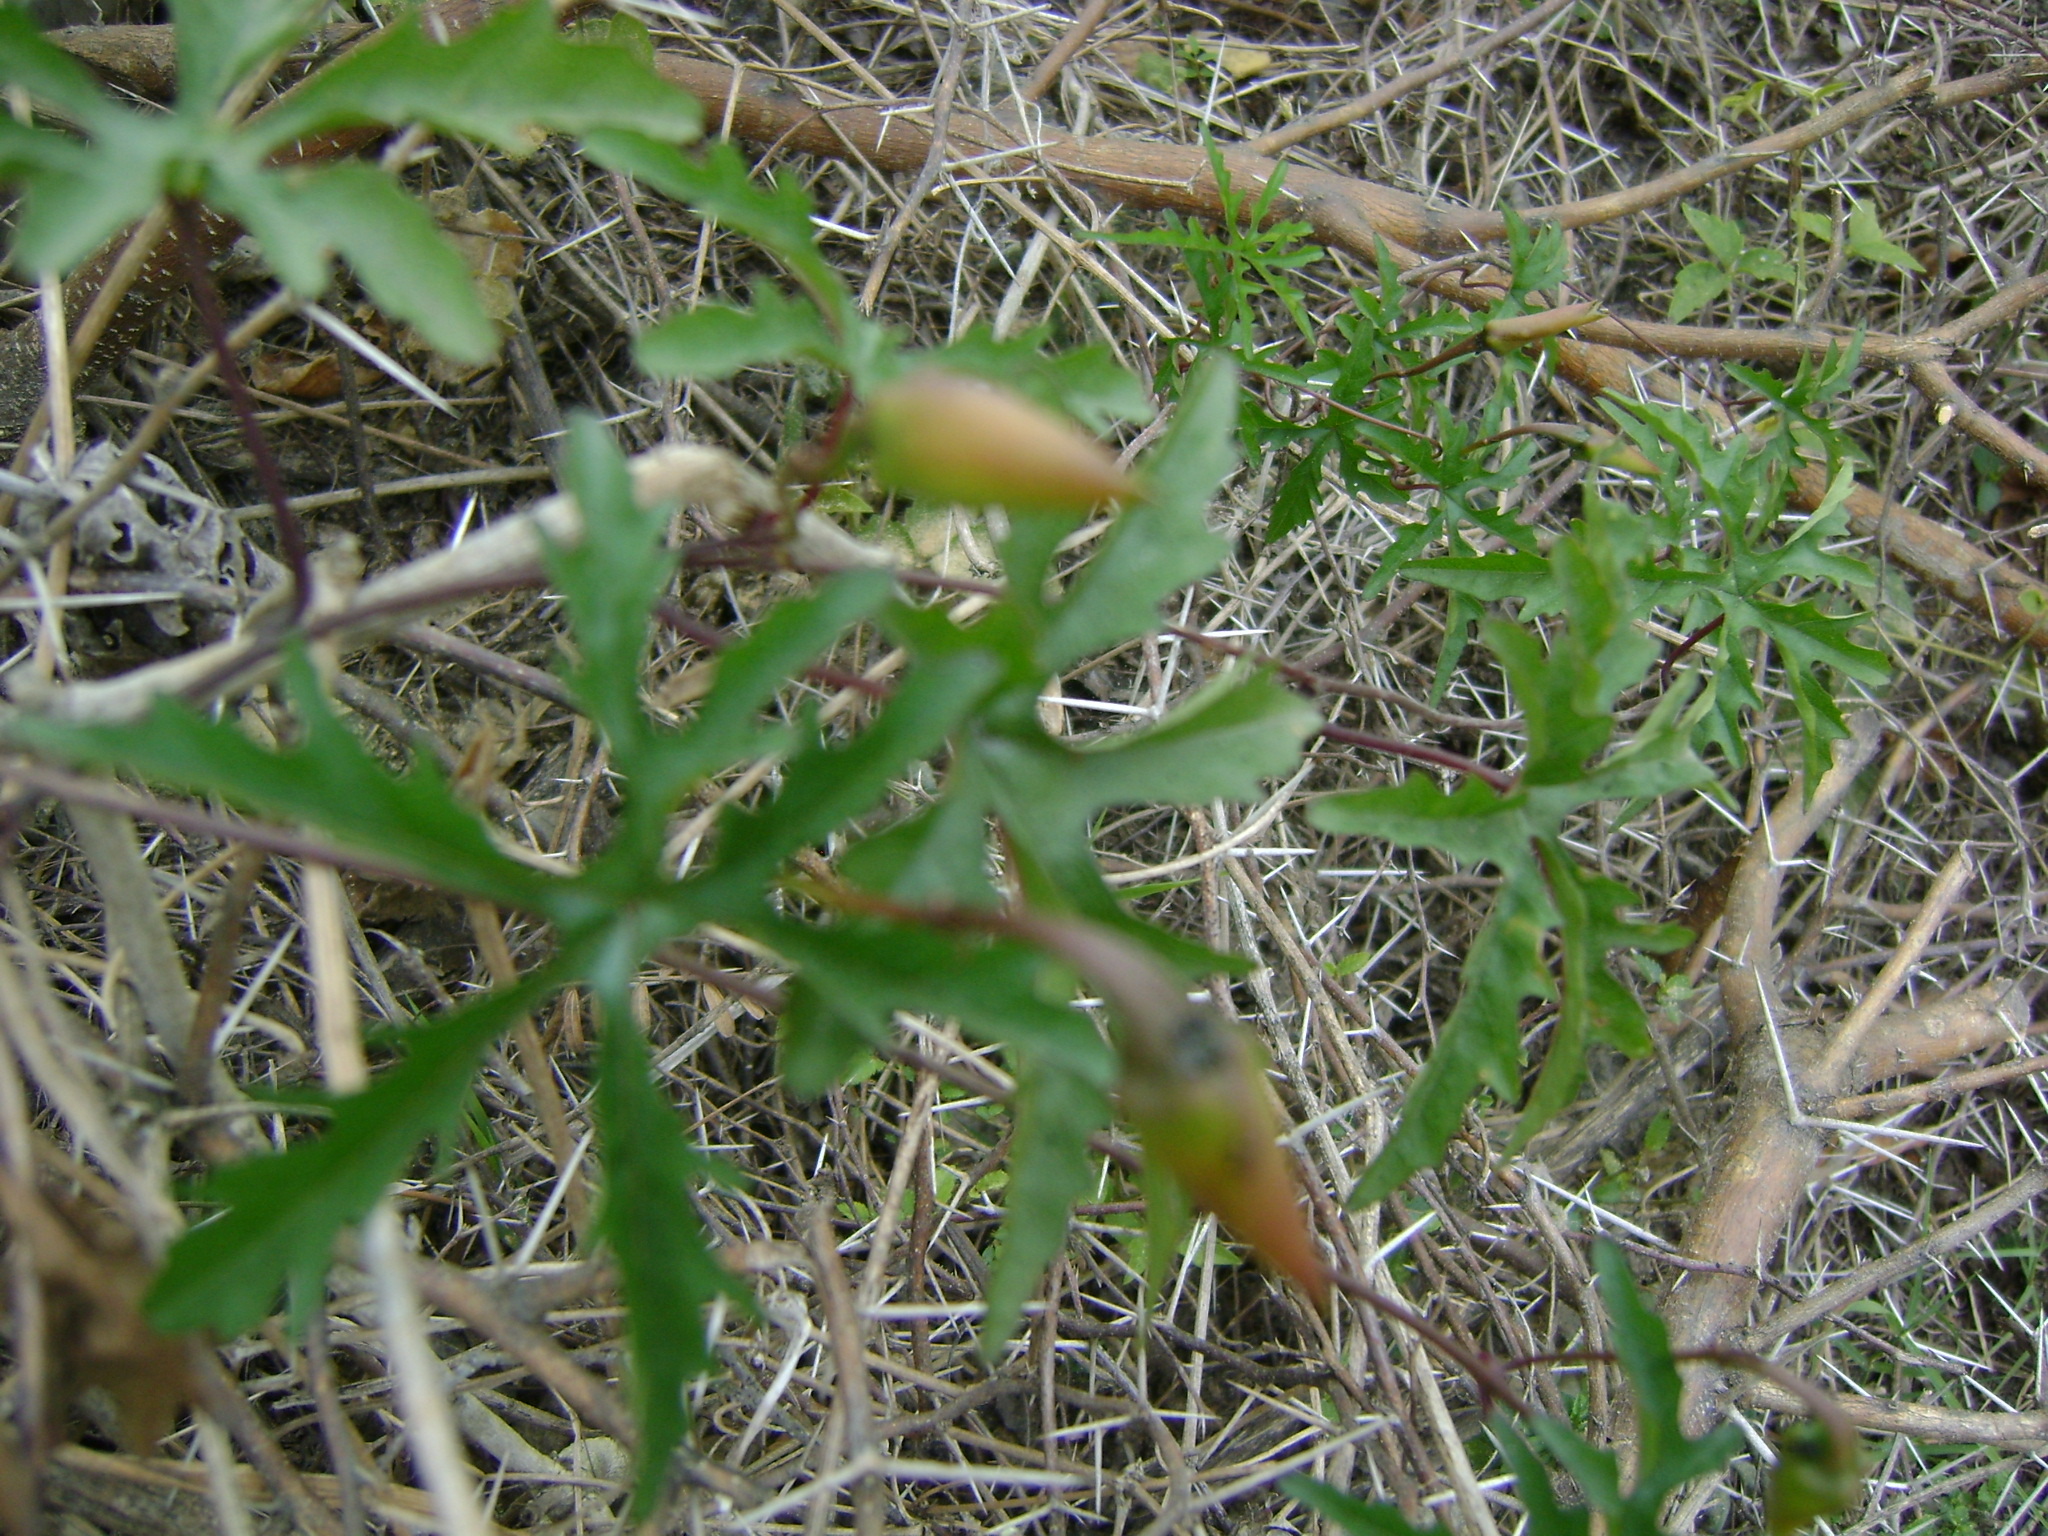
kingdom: Plantae
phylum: Tracheophyta
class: Magnoliopsida
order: Solanales
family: Convolvulaceae
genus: Distimake
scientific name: Distimake dissectus
